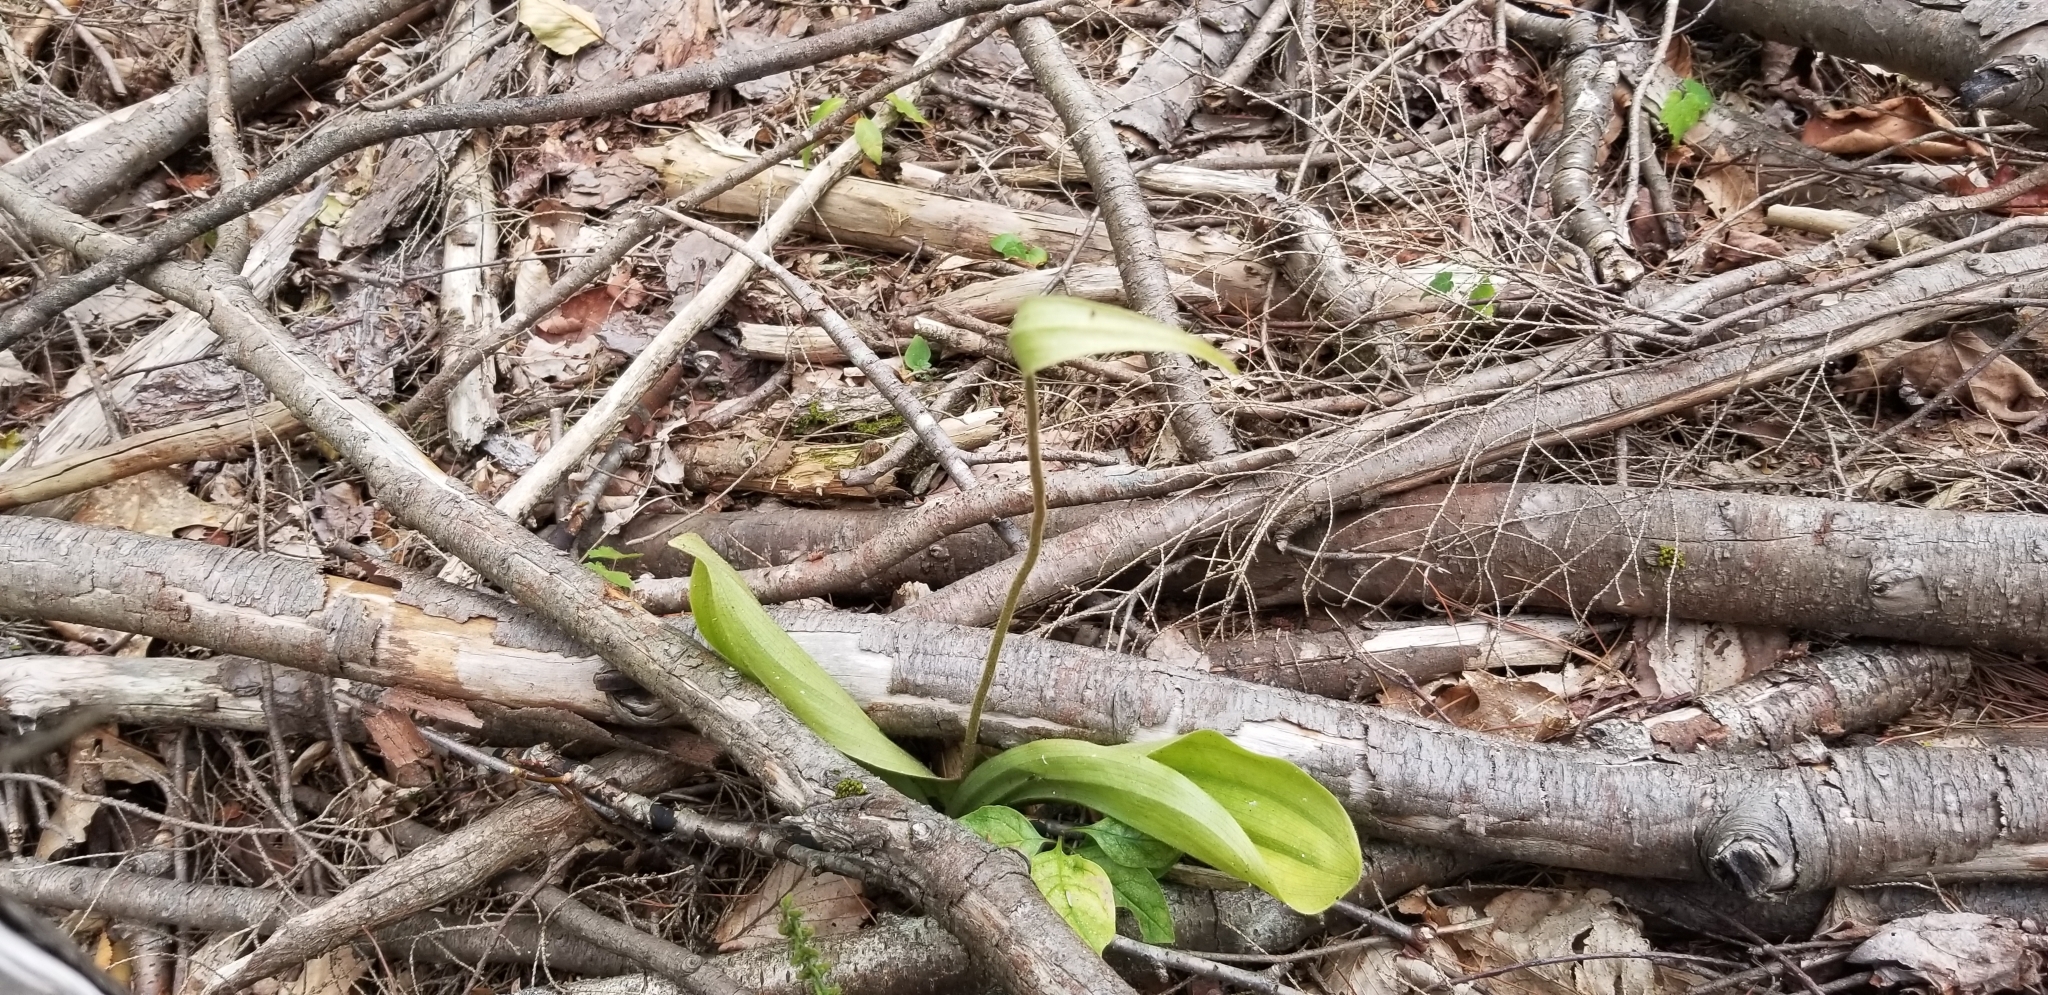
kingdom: Plantae
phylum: Tracheophyta
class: Liliopsida
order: Asparagales
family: Orchidaceae
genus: Cypripedium
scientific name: Cypripedium acaule
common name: Pink lady's-slipper
